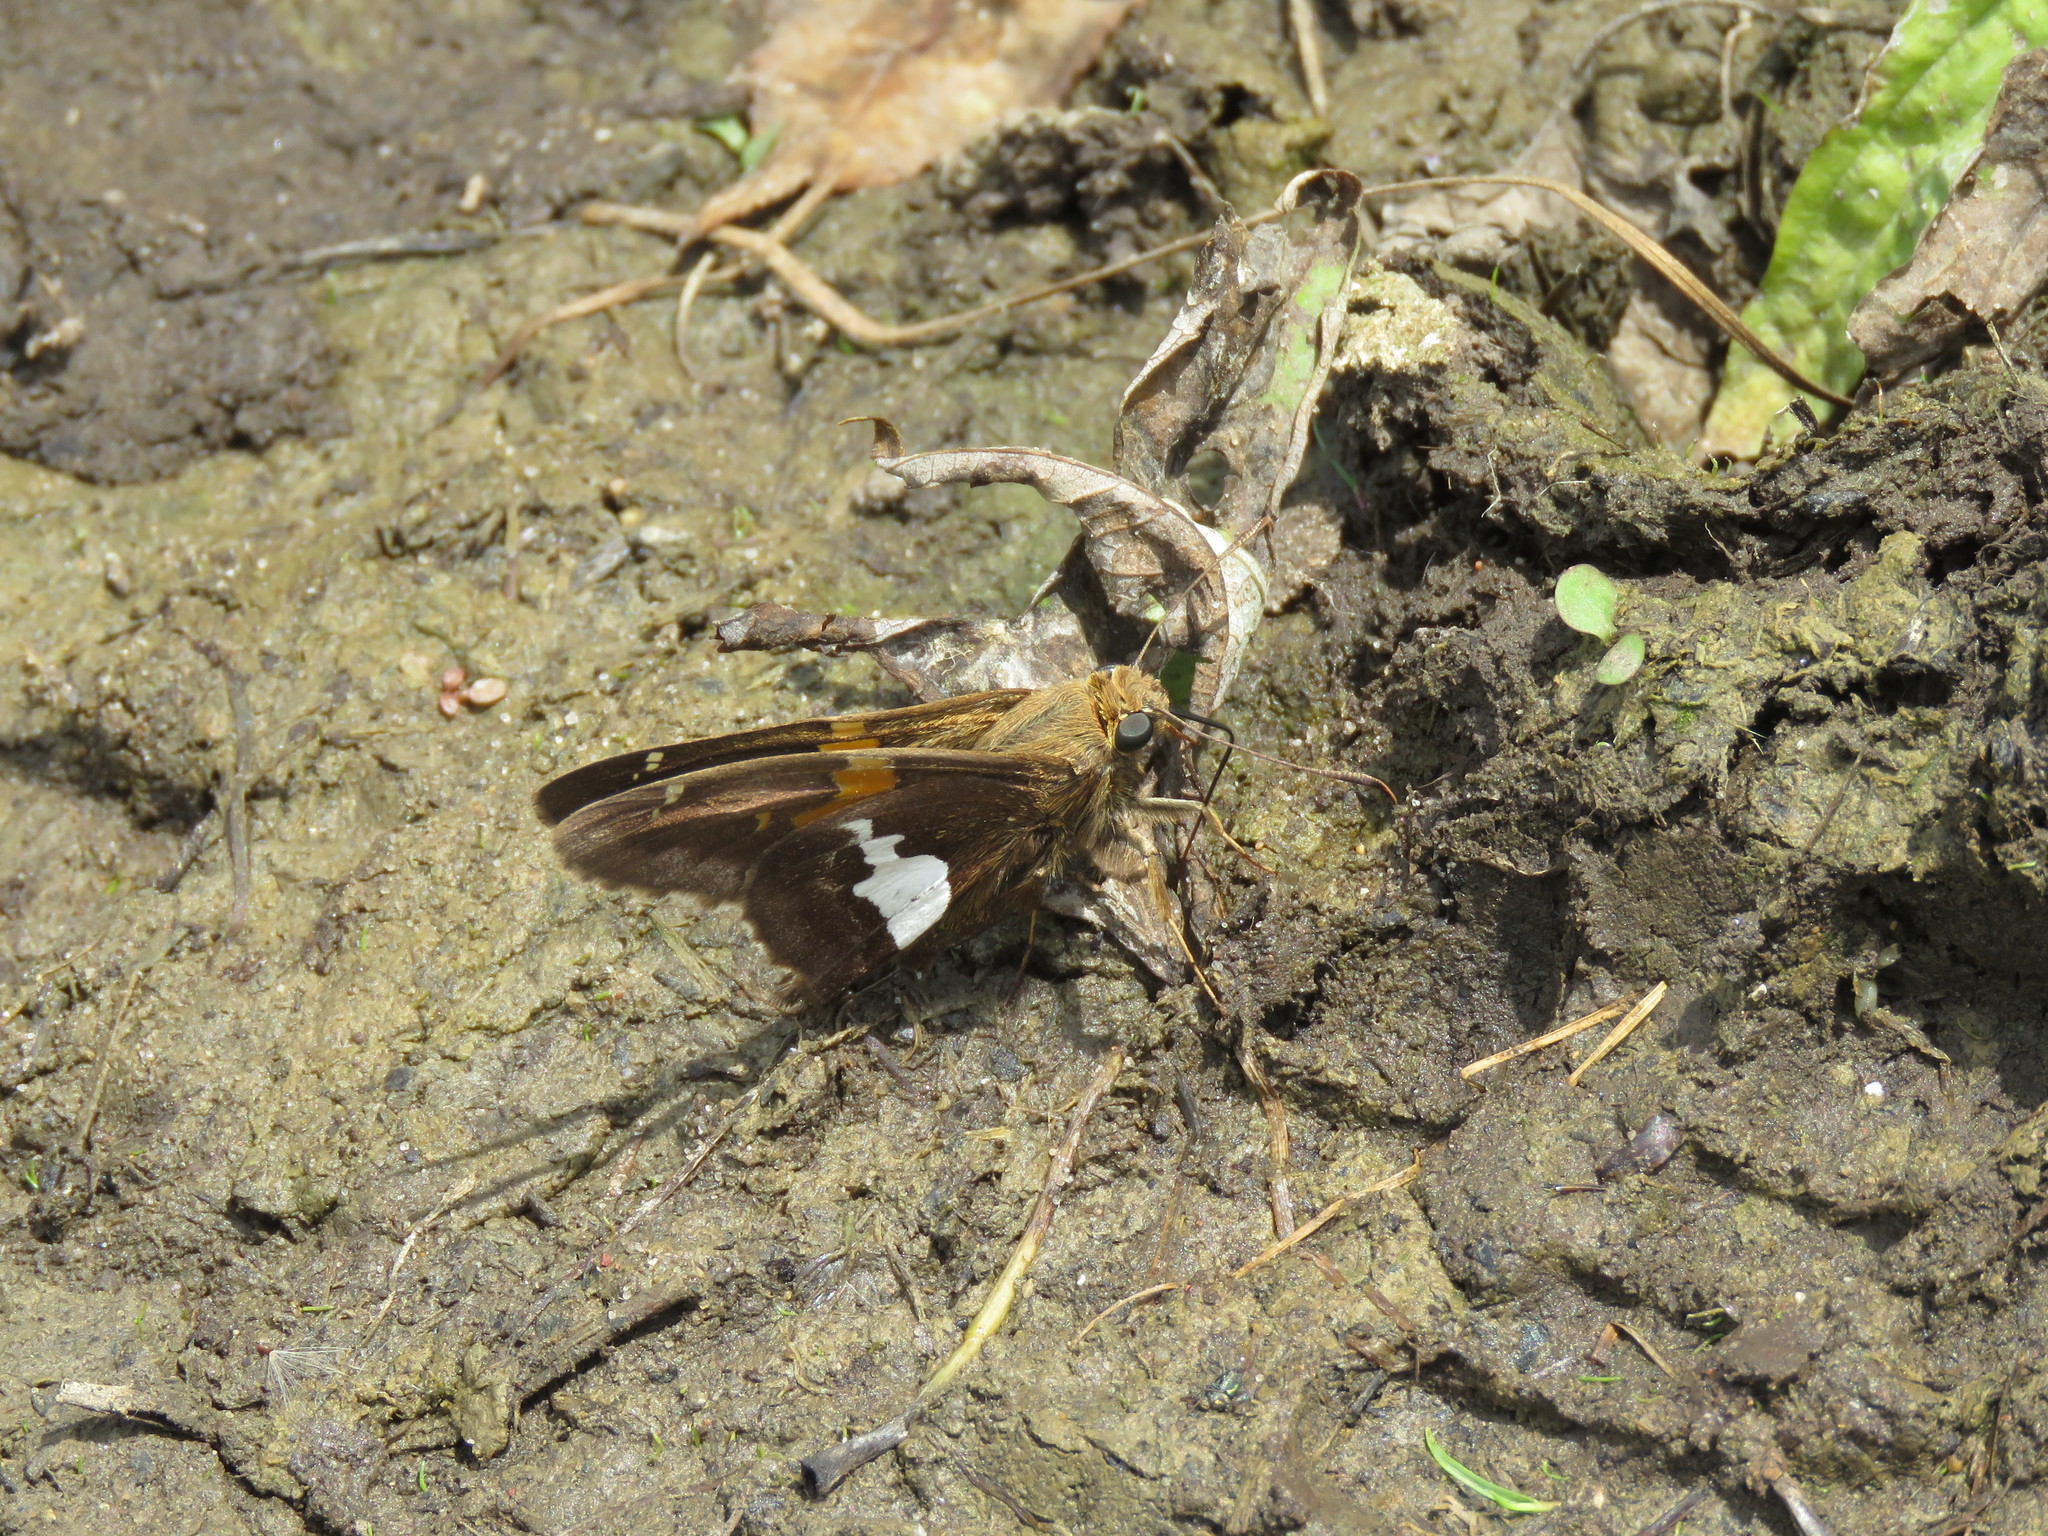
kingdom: Animalia
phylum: Arthropoda
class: Insecta
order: Lepidoptera
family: Hesperiidae
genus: Epargyreus
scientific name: Epargyreus clarus
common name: Silver-spotted skipper
